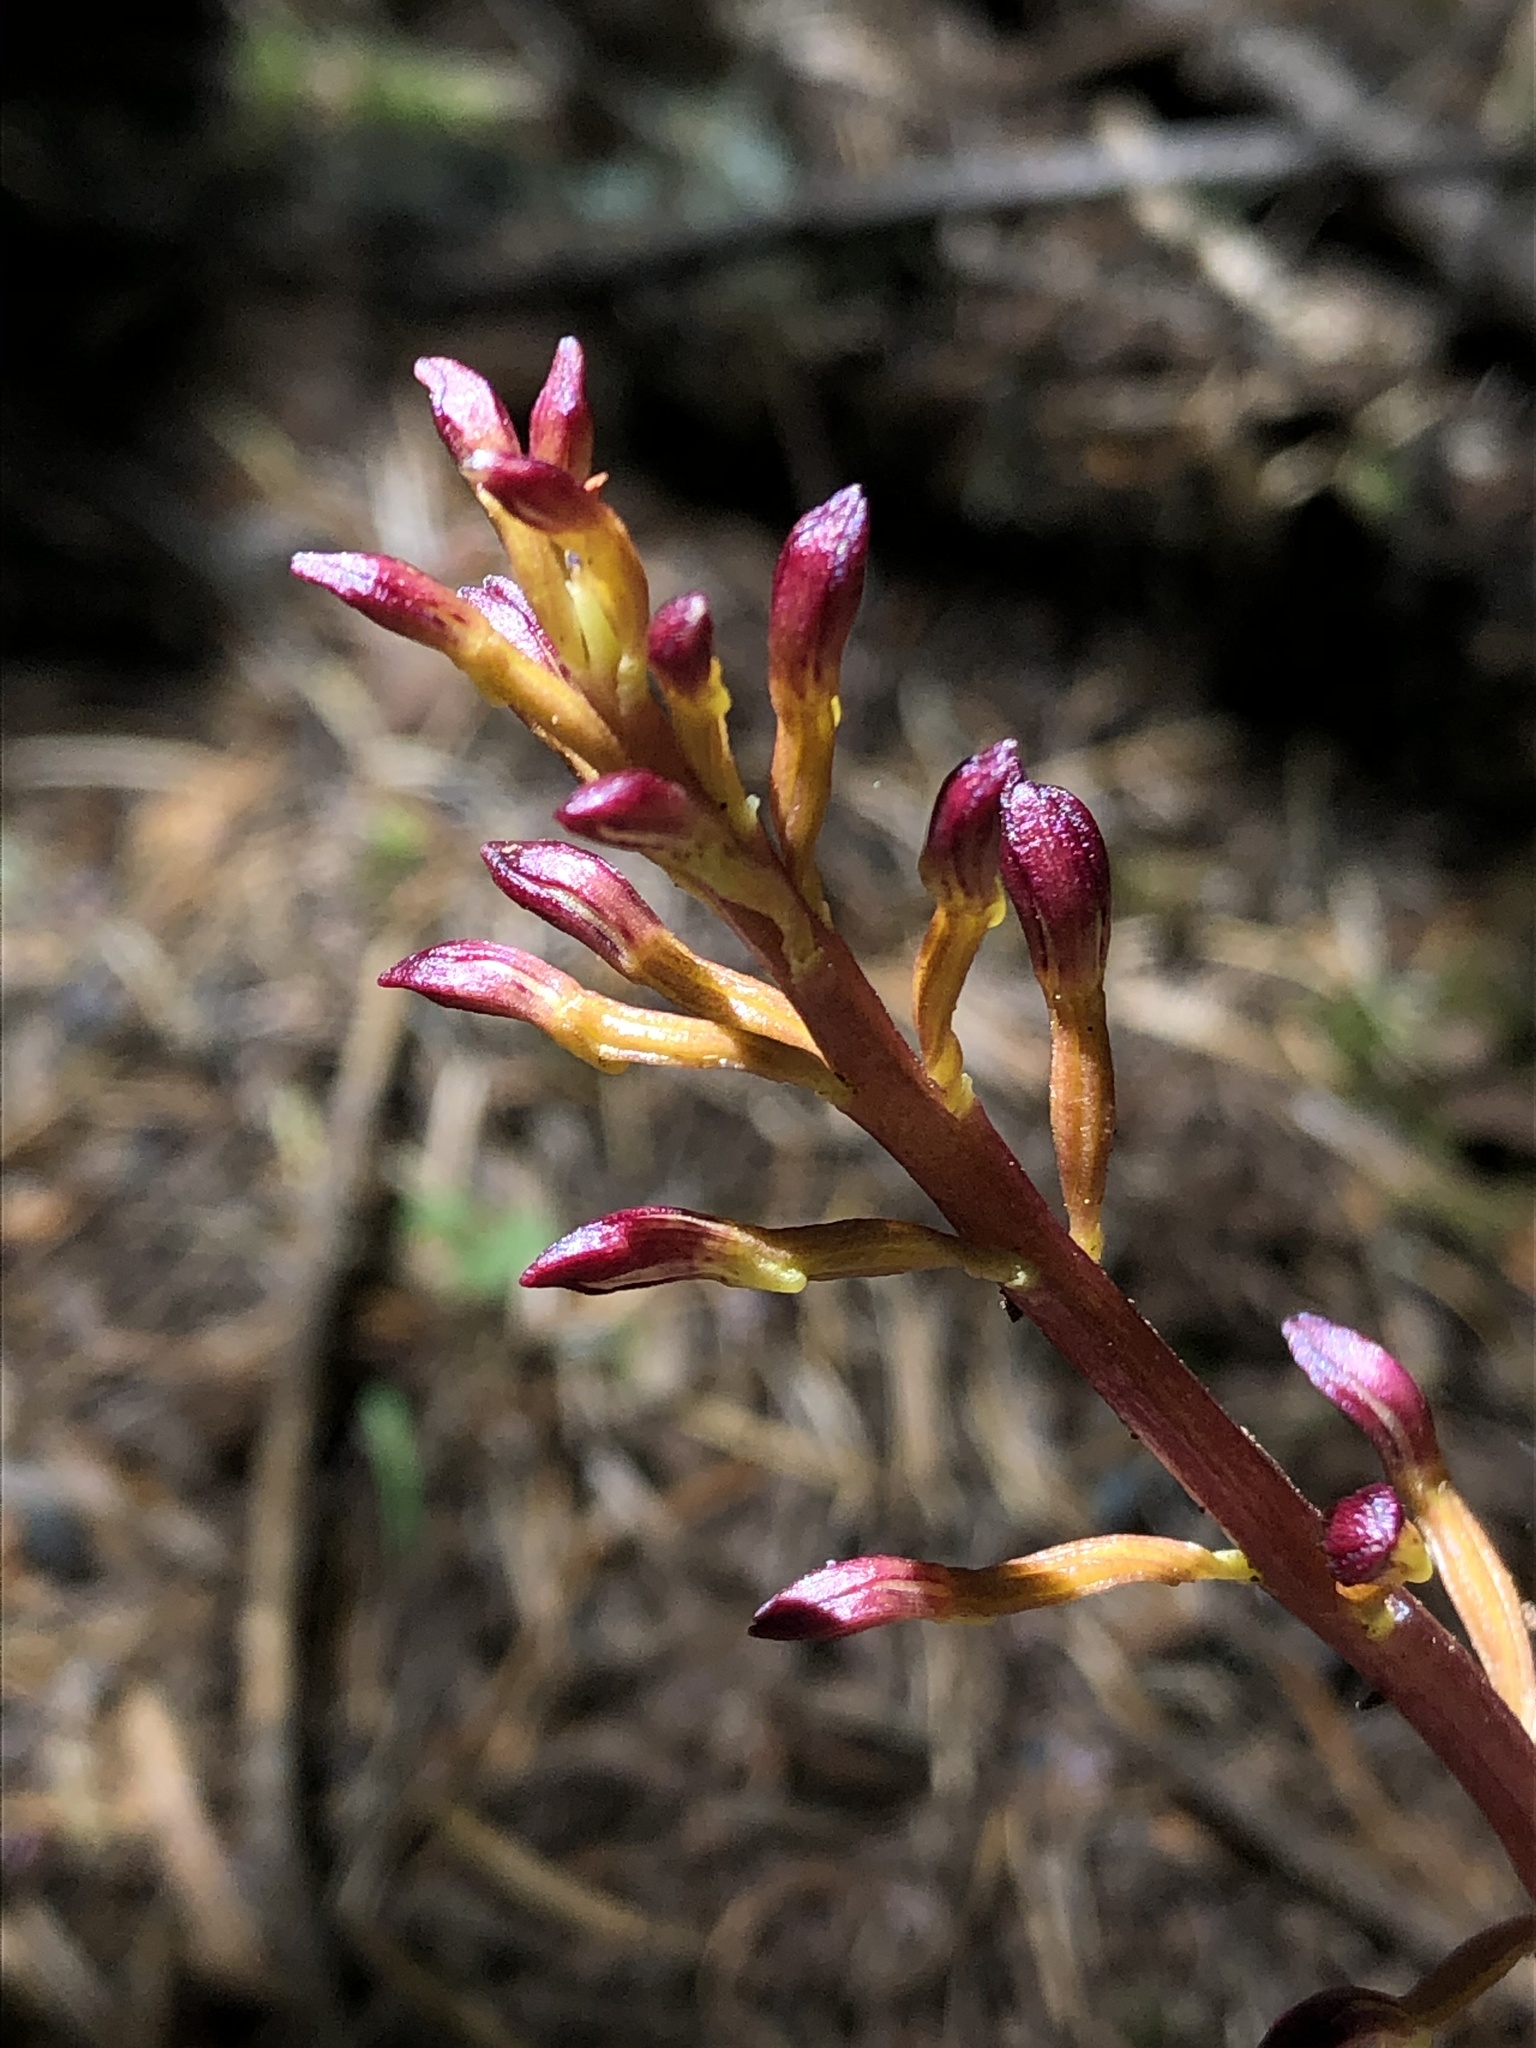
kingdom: Plantae
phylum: Tracheophyta
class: Liliopsida
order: Asparagales
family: Orchidaceae
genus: Corallorhiza
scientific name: Corallorhiza maculata
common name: Spotted coralroot
